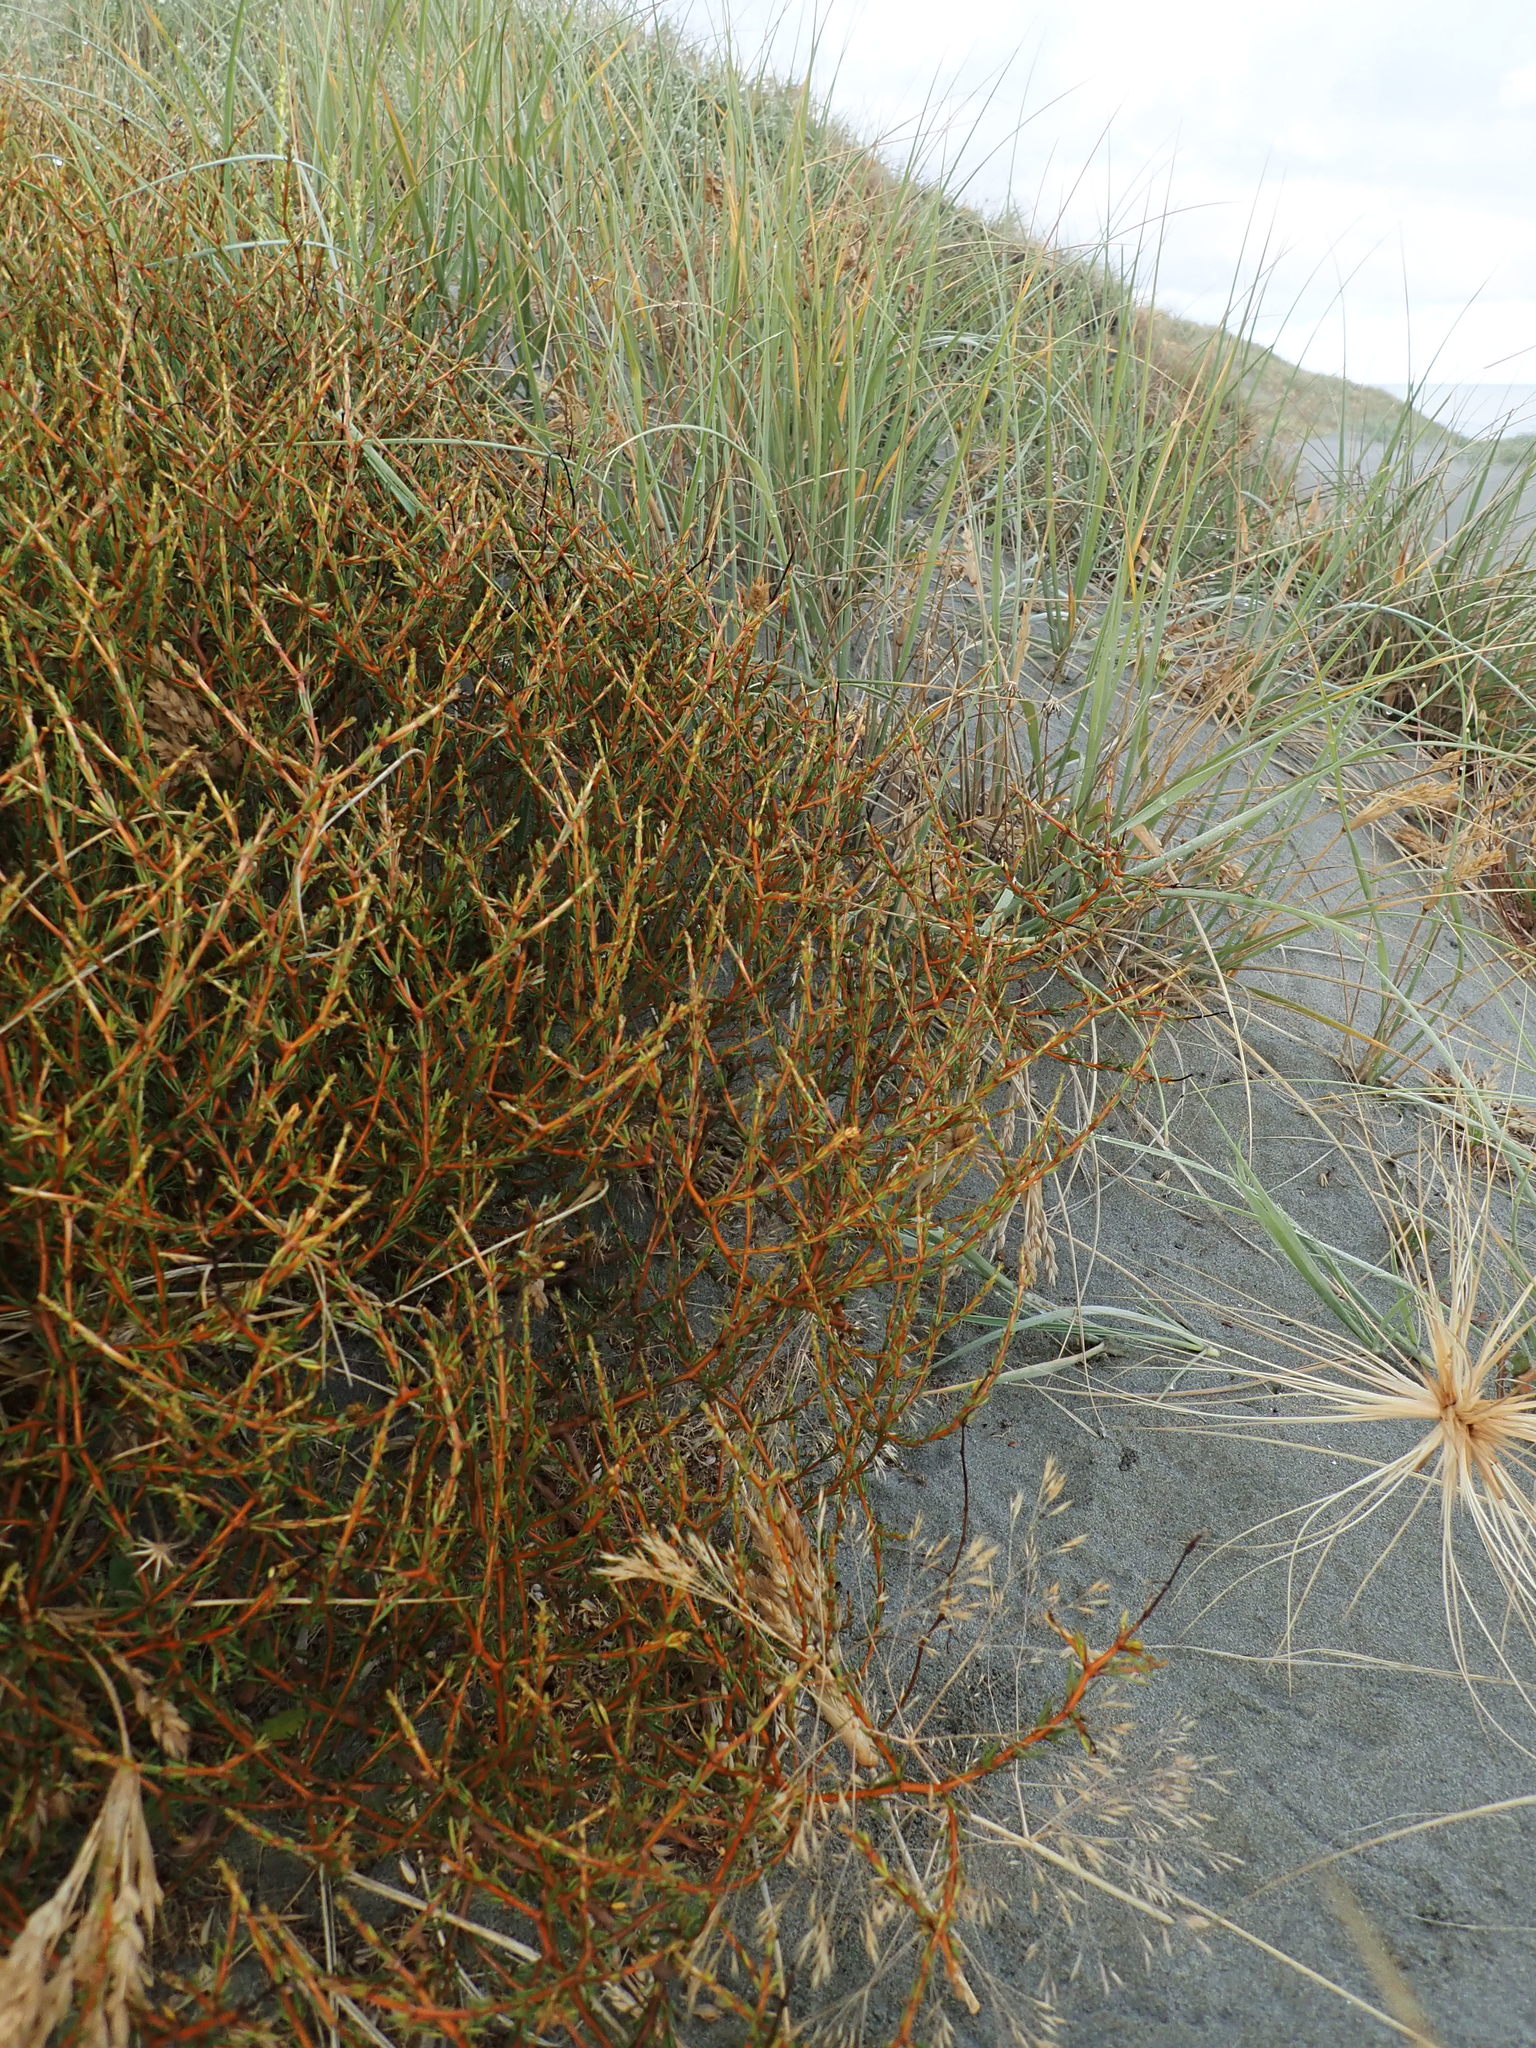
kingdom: Plantae
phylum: Tracheophyta
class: Magnoliopsida
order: Gentianales
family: Rubiaceae
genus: Coprosma
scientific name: Coprosma acerosa
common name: Sand coprosma
